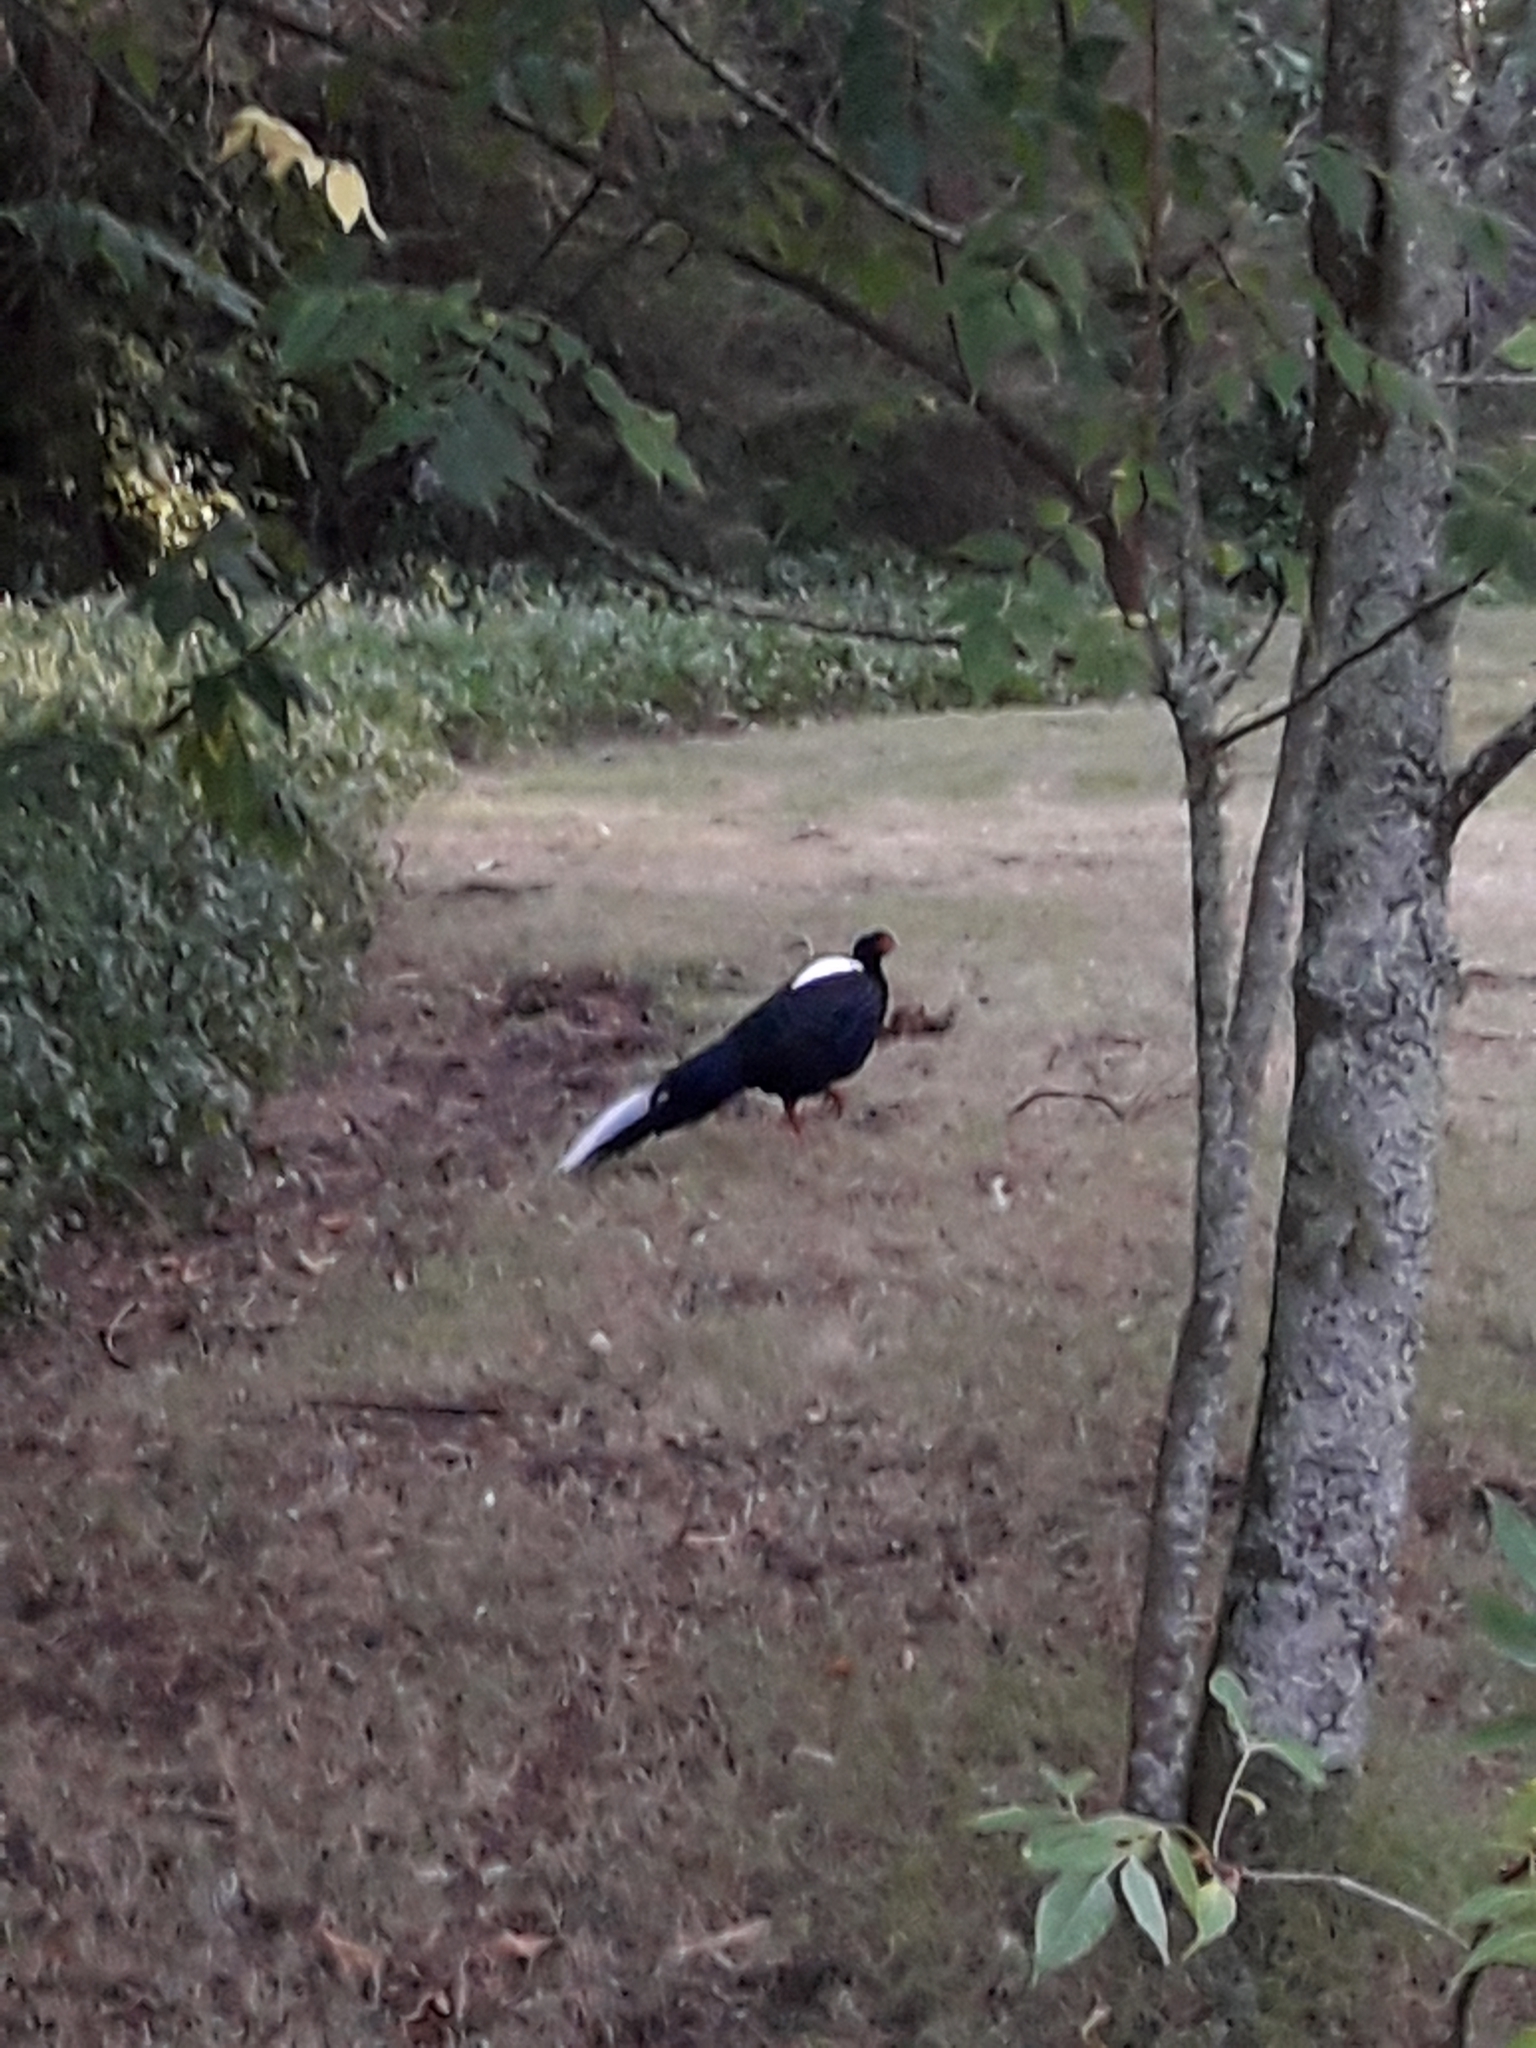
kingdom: Animalia
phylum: Chordata
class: Aves
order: Galliformes
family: Phasianidae
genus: Lophura
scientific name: Lophura swinhoii
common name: Swinhoe's pheasant
